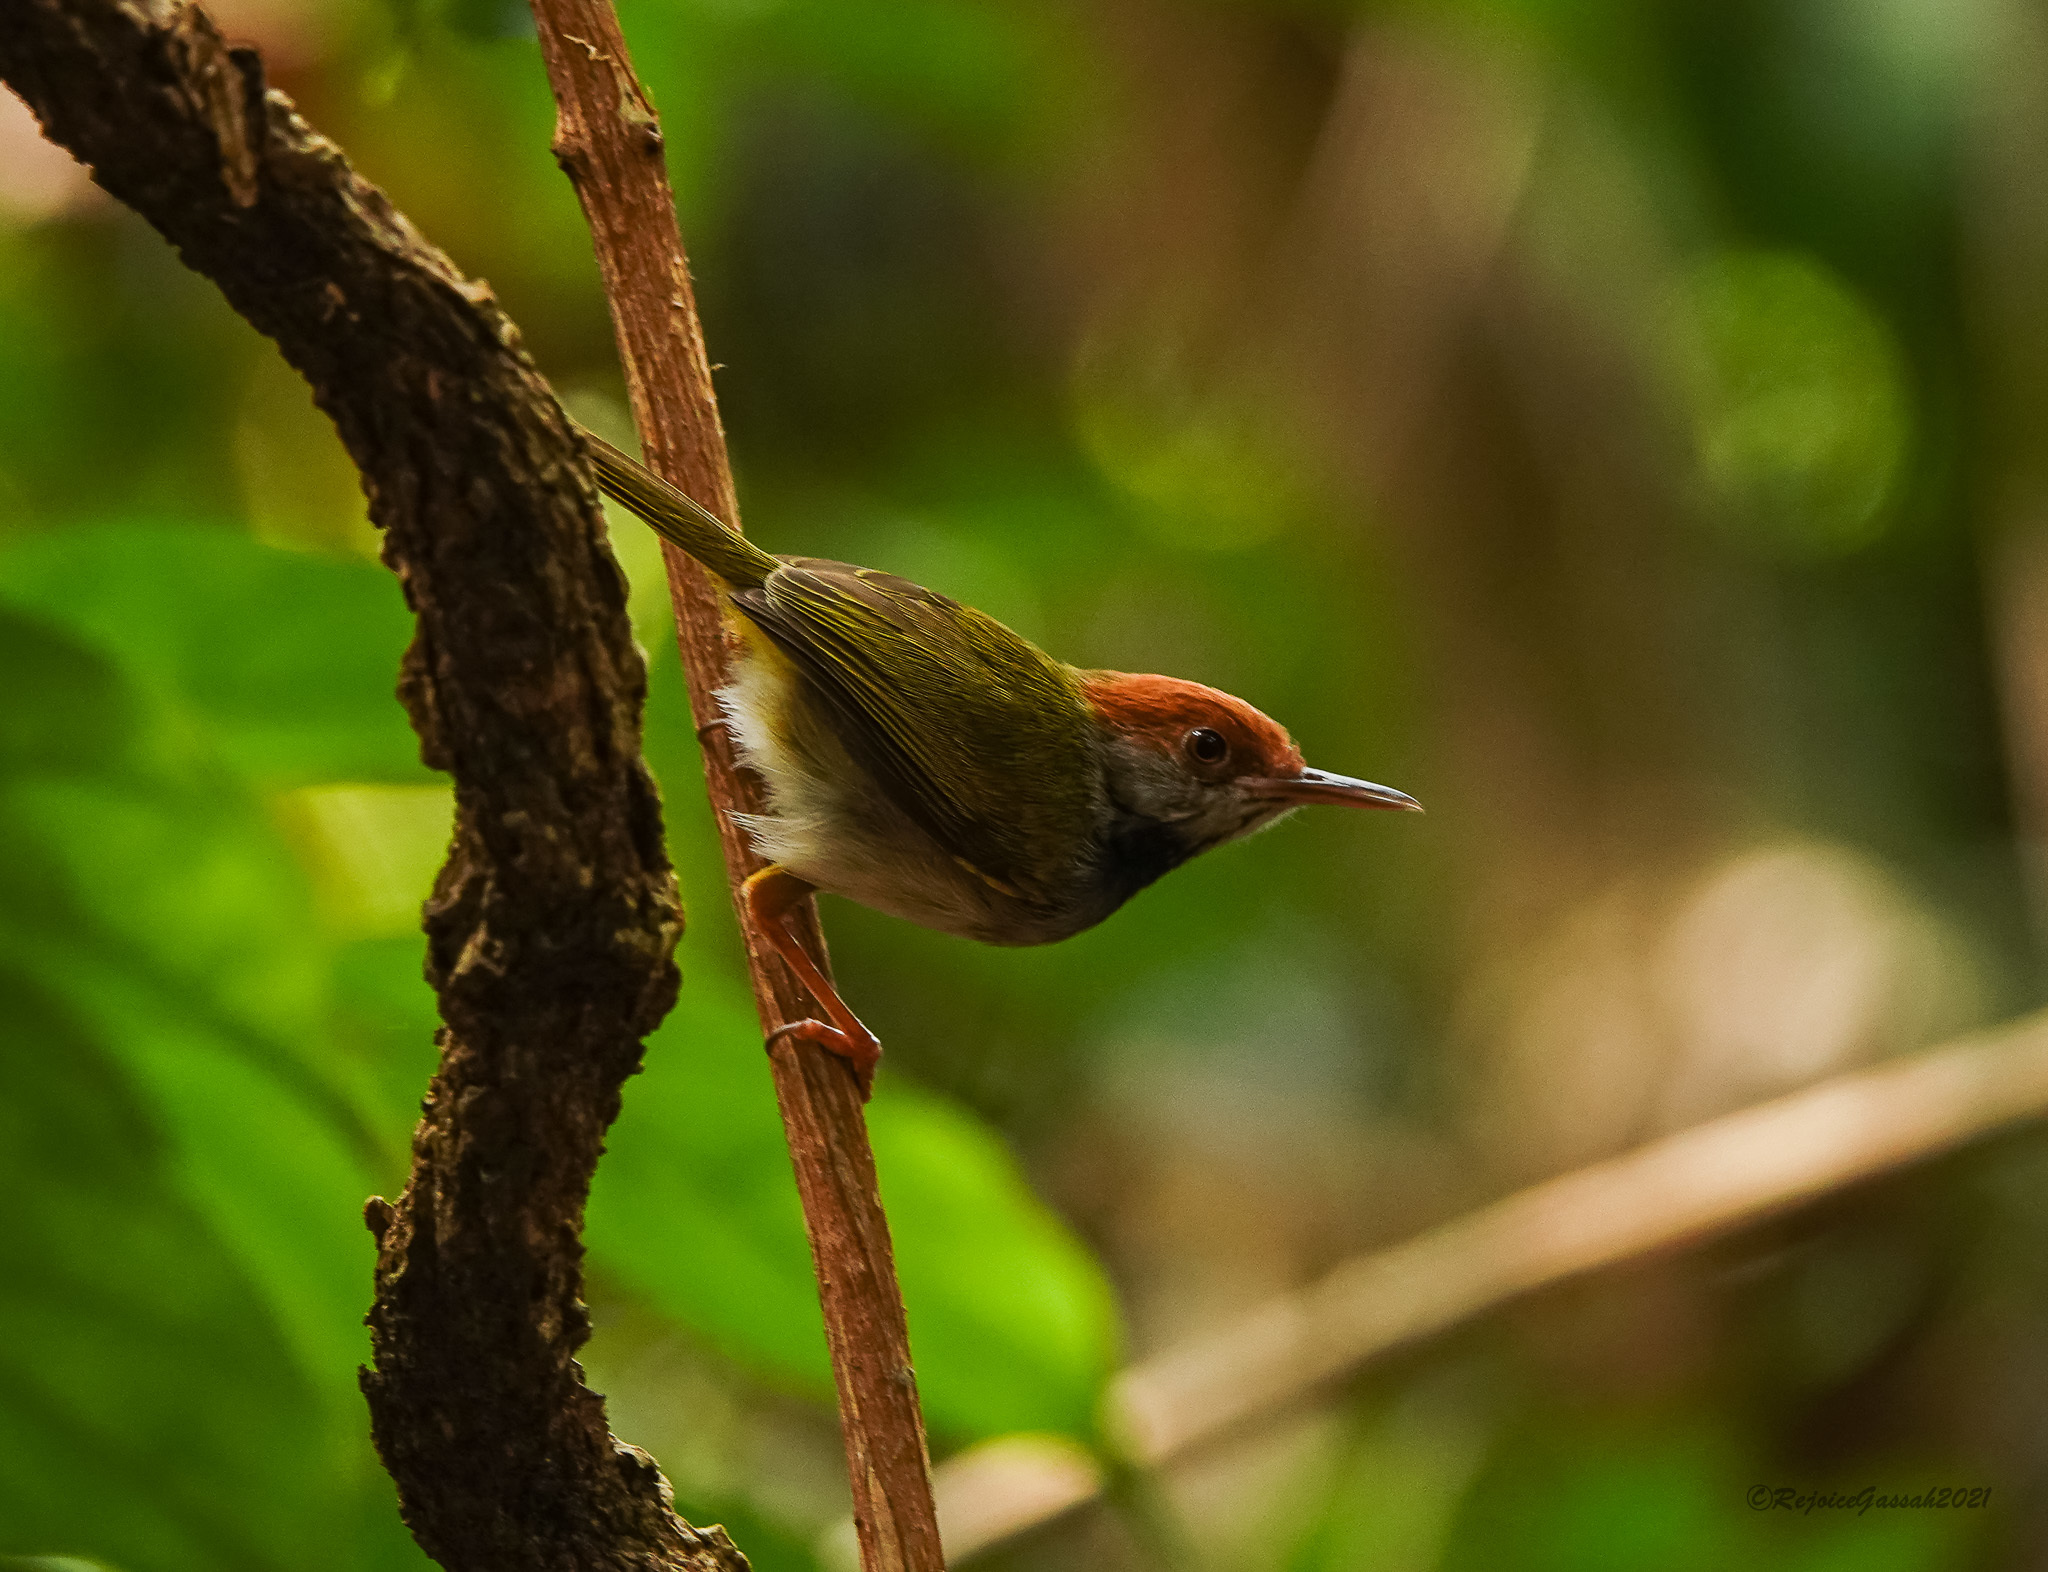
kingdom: Animalia
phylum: Chordata
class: Aves
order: Passeriformes
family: Cisticolidae
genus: Orthotomus
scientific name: Orthotomus atrogularis
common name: Dark-necked tailorbird
